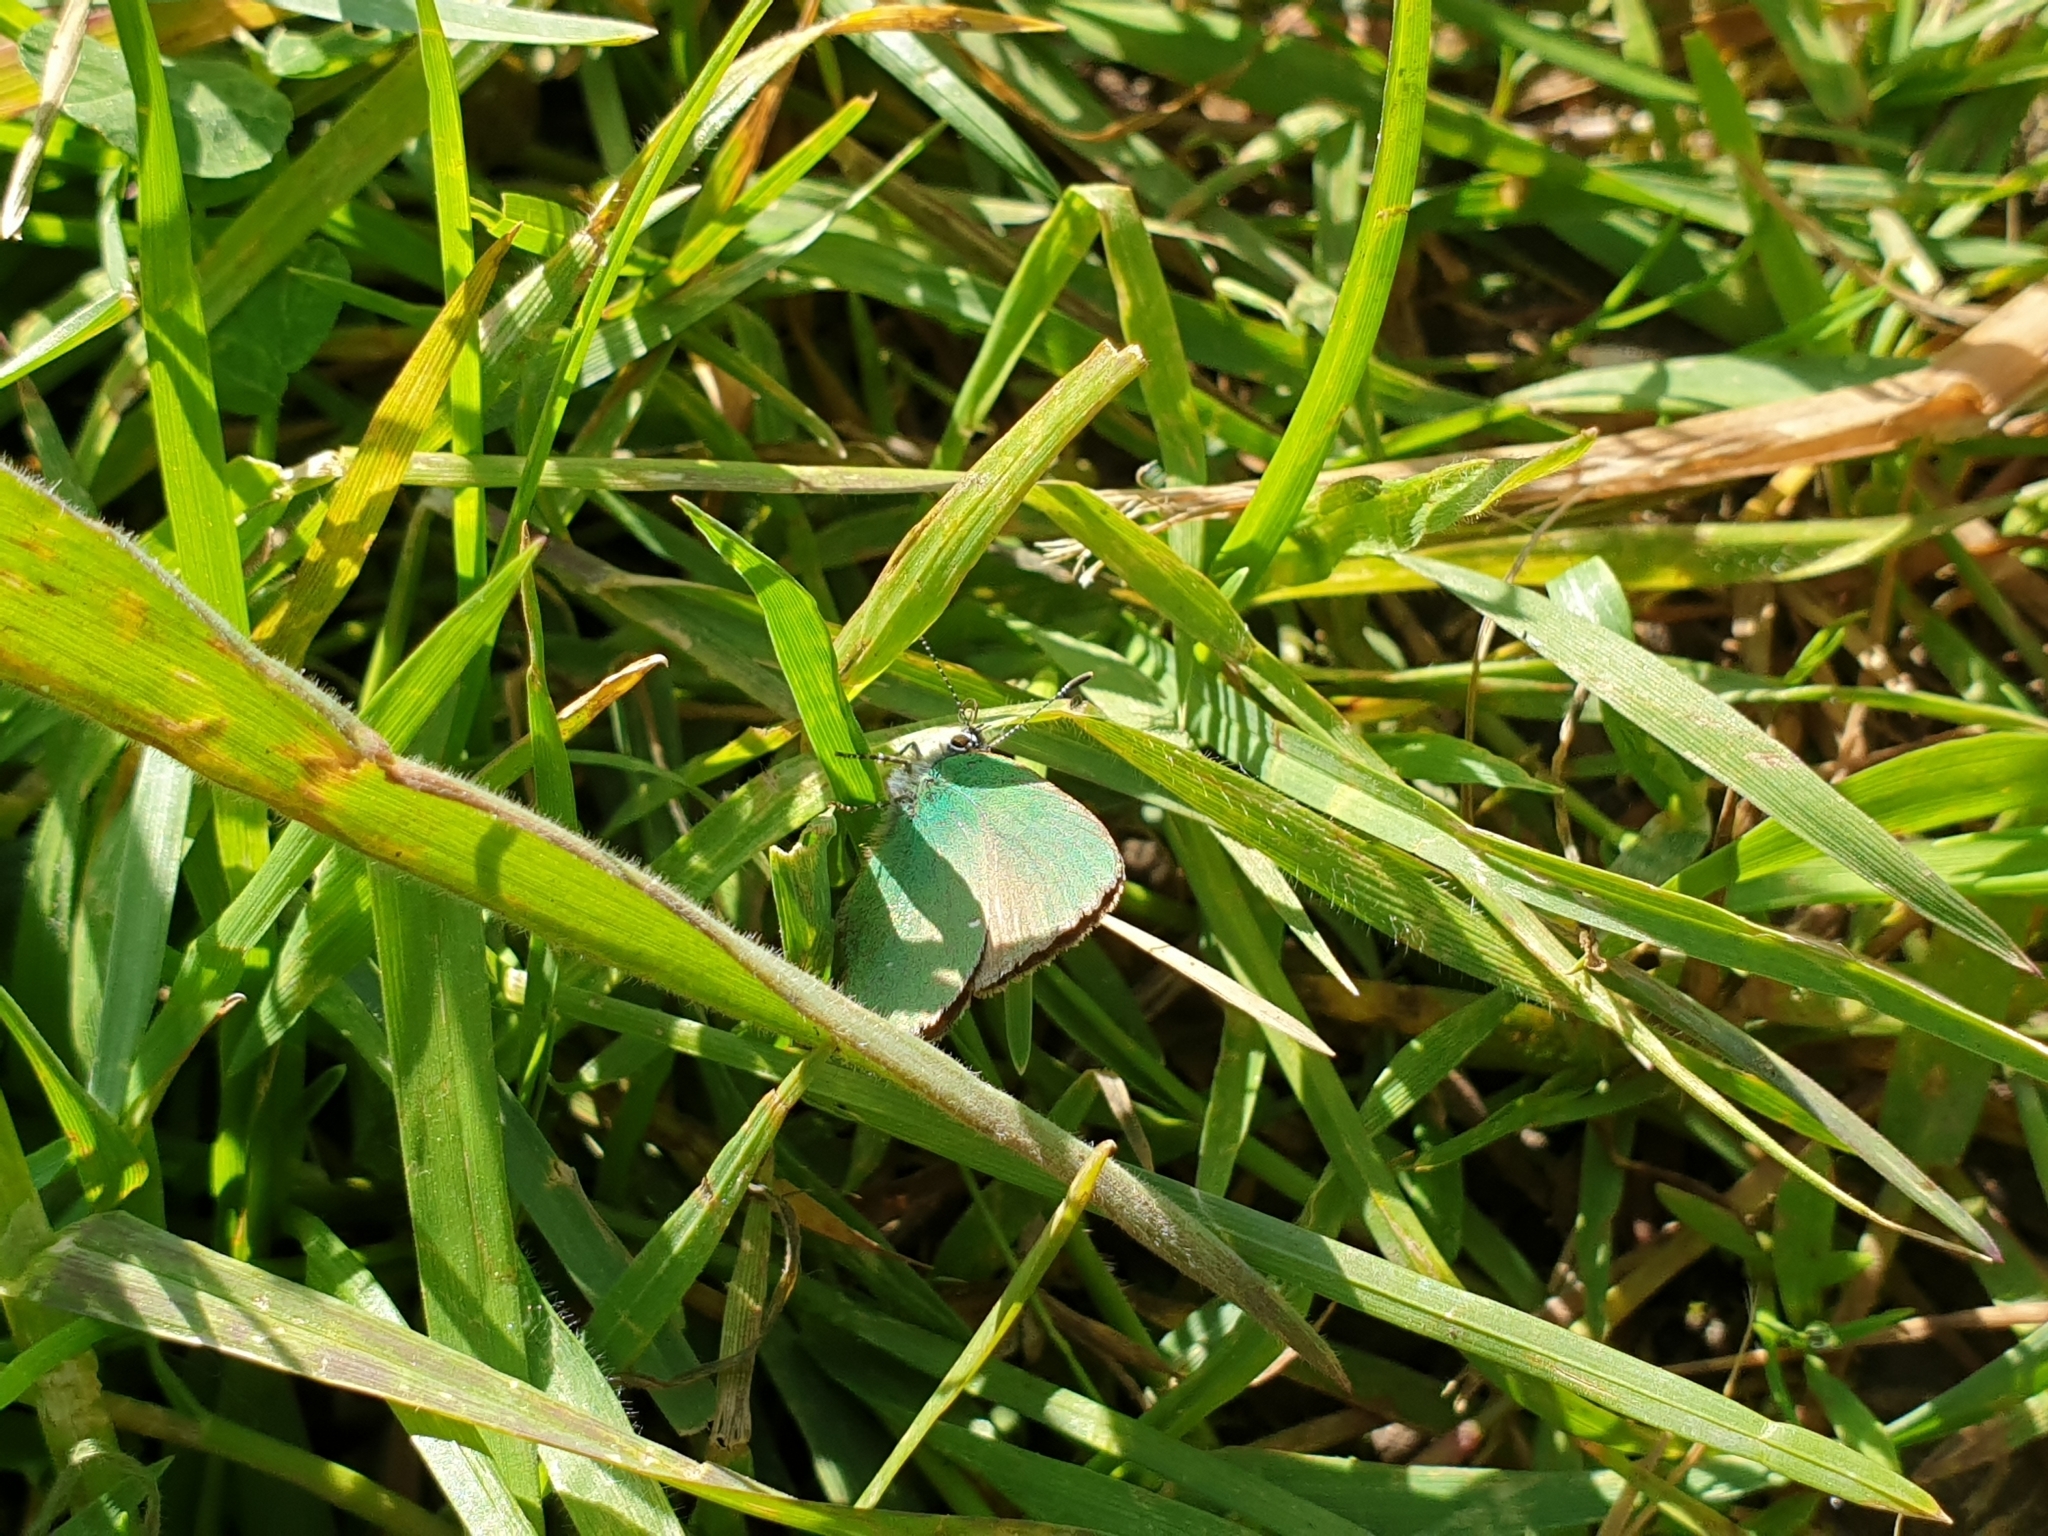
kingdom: Animalia
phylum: Arthropoda
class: Insecta
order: Lepidoptera
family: Lycaenidae
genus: Callophrys
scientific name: Callophrys rubi
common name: Green hairstreak
